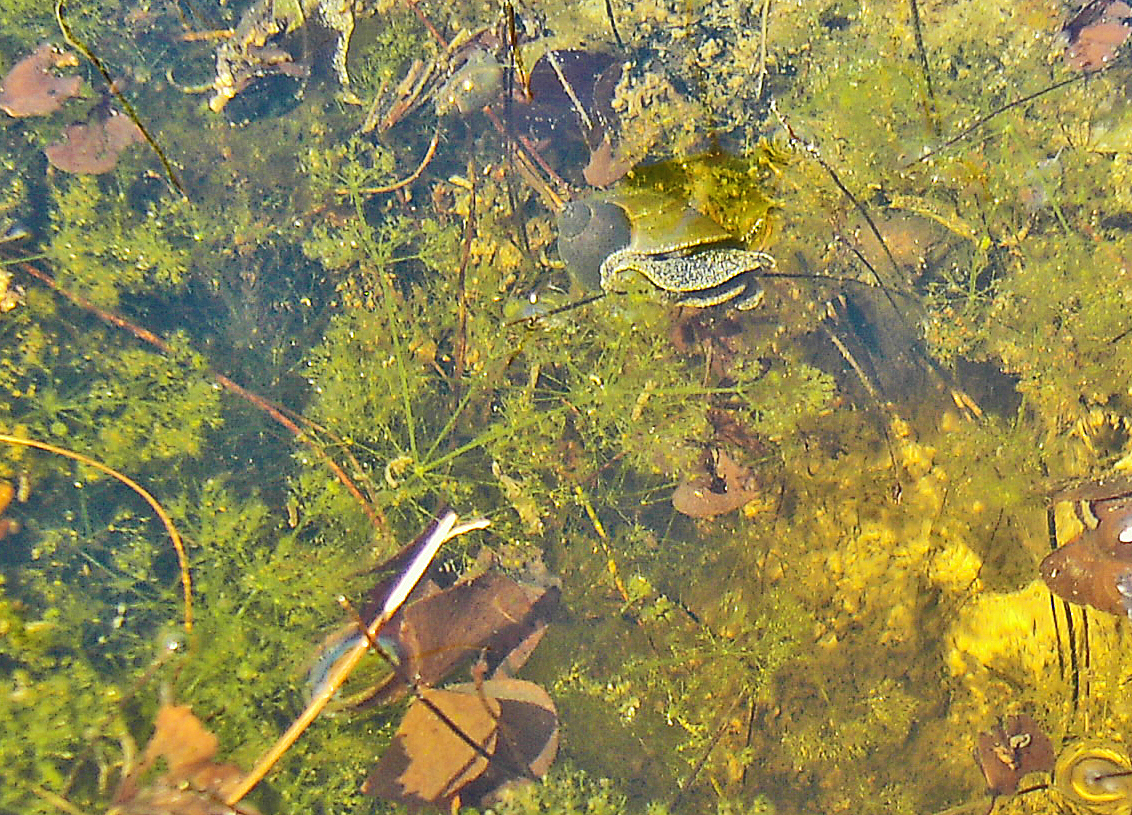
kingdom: Animalia
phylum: Mollusca
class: Gastropoda
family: Lymnaeidae
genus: Bullastra
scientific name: Bullastra vinosa
